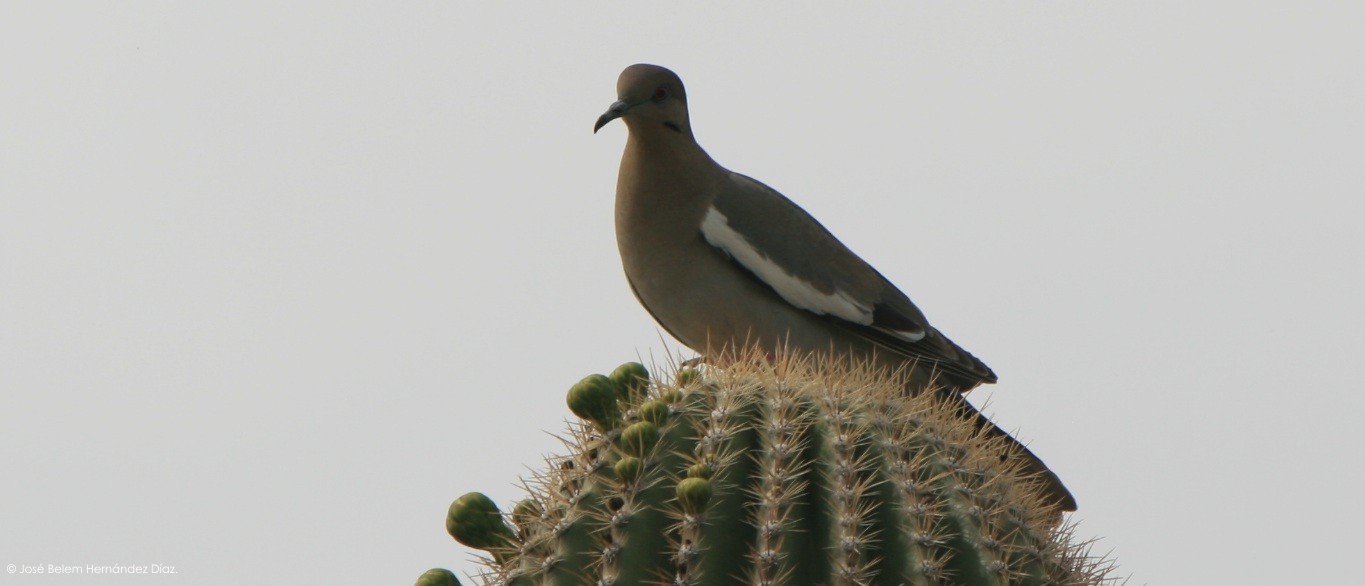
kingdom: Animalia
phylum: Chordata
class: Aves
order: Columbiformes
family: Columbidae
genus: Zenaida
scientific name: Zenaida asiatica
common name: White-winged dove
